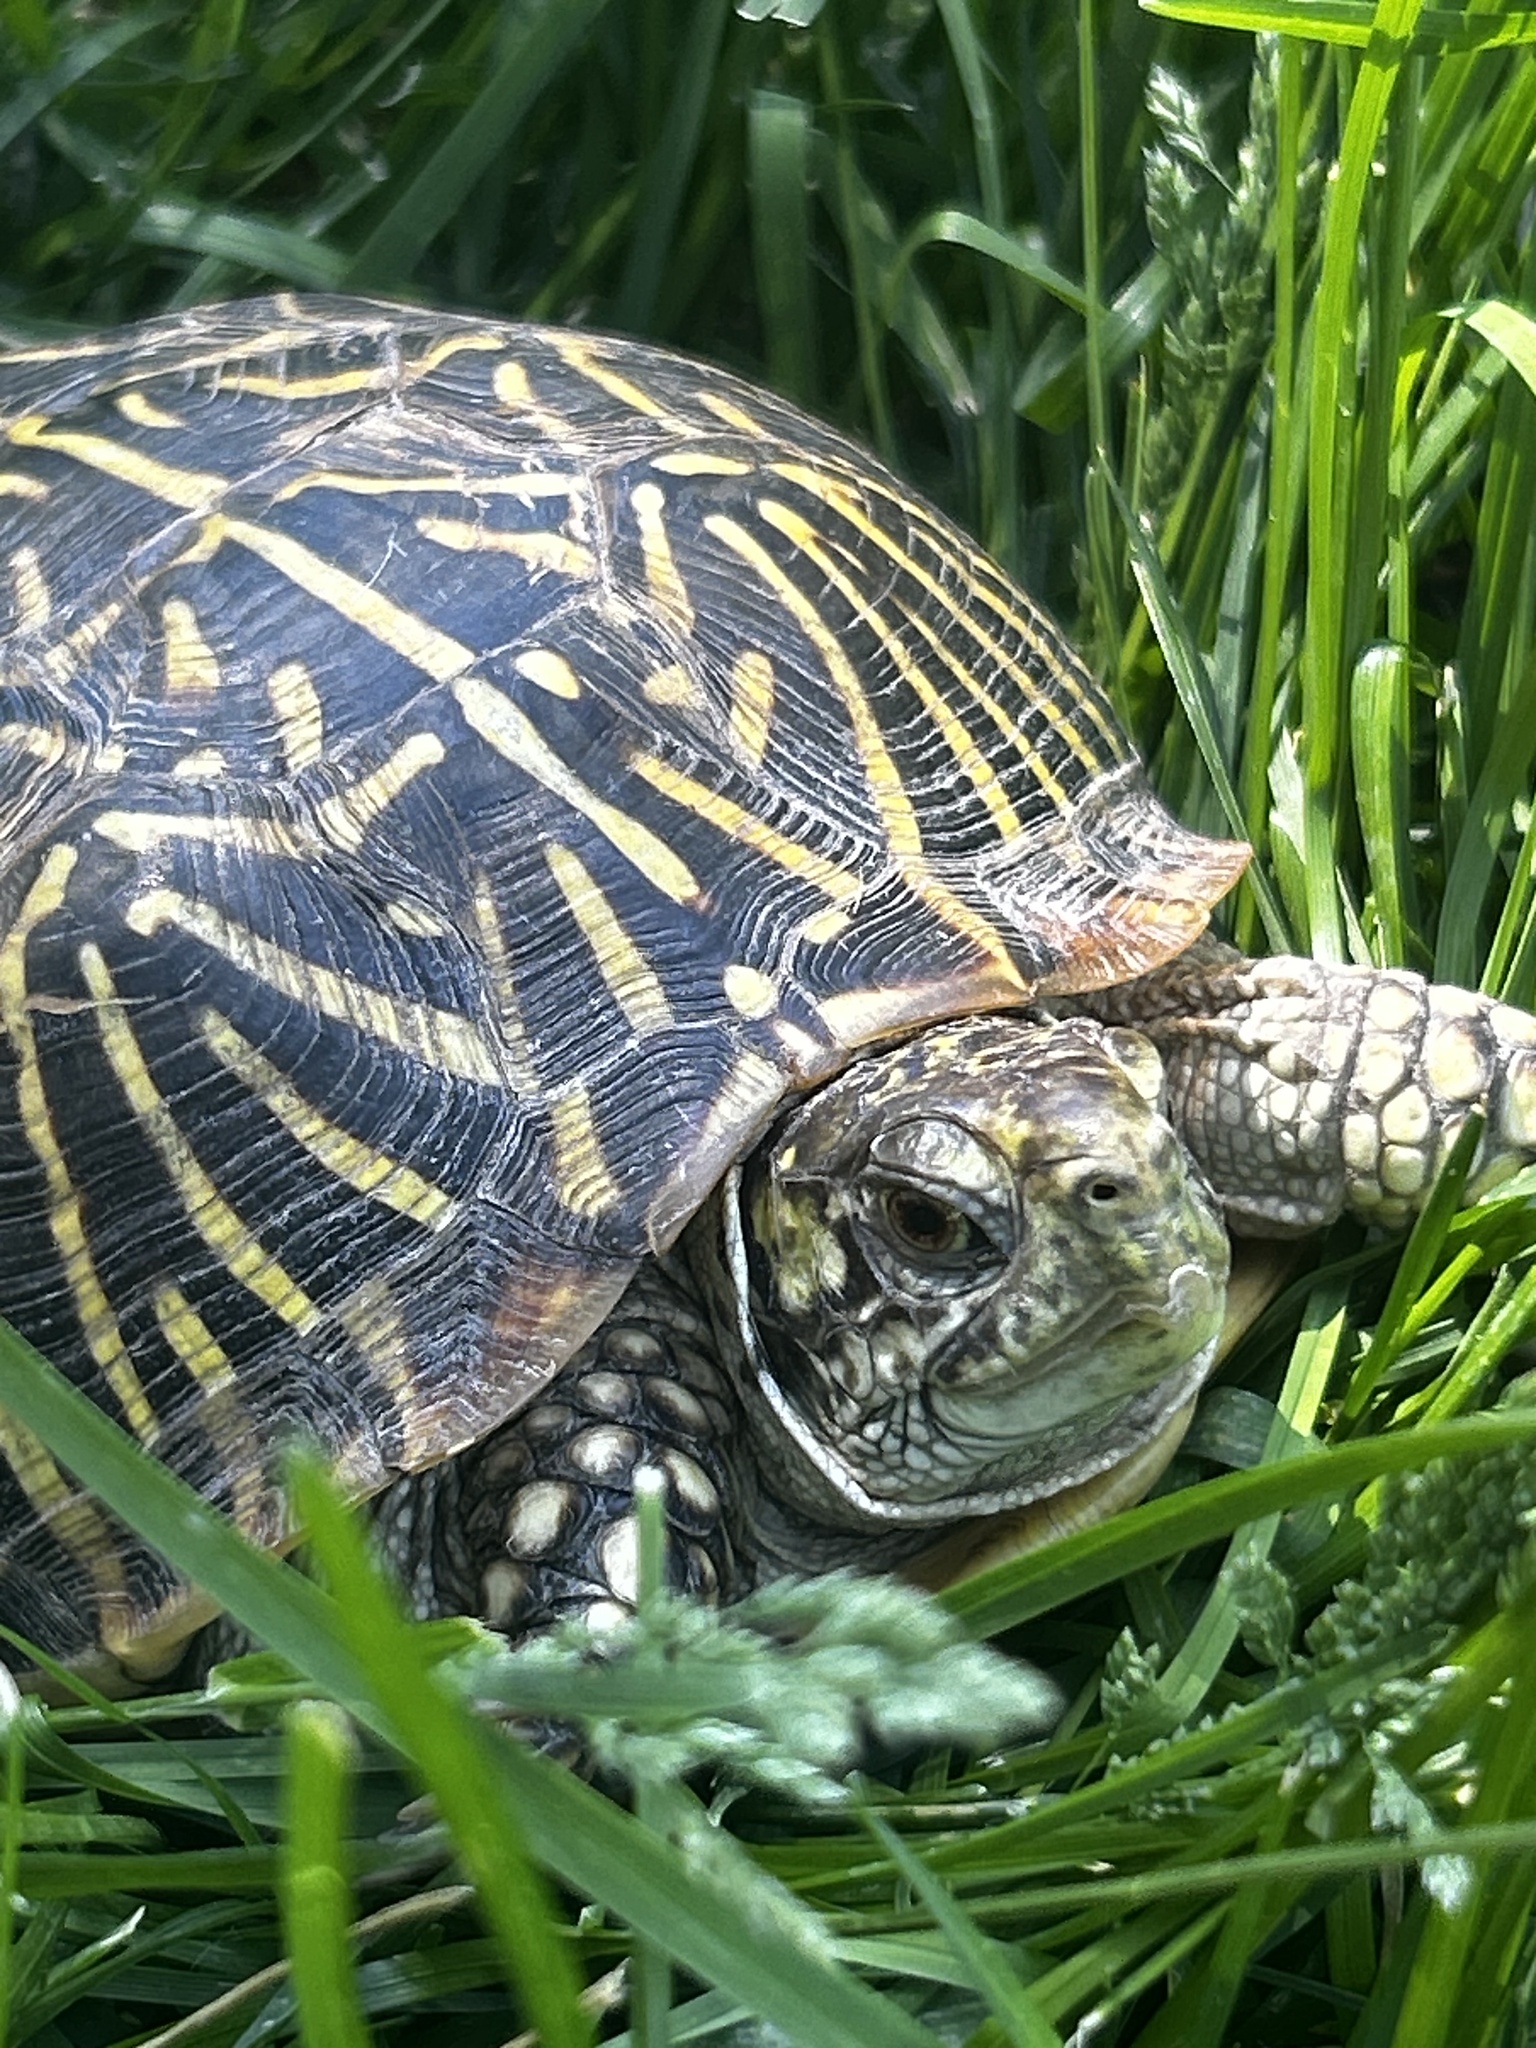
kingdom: Animalia
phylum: Chordata
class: Testudines
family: Emydidae
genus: Terrapene
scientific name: Terrapene ornata
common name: Western box turtle
